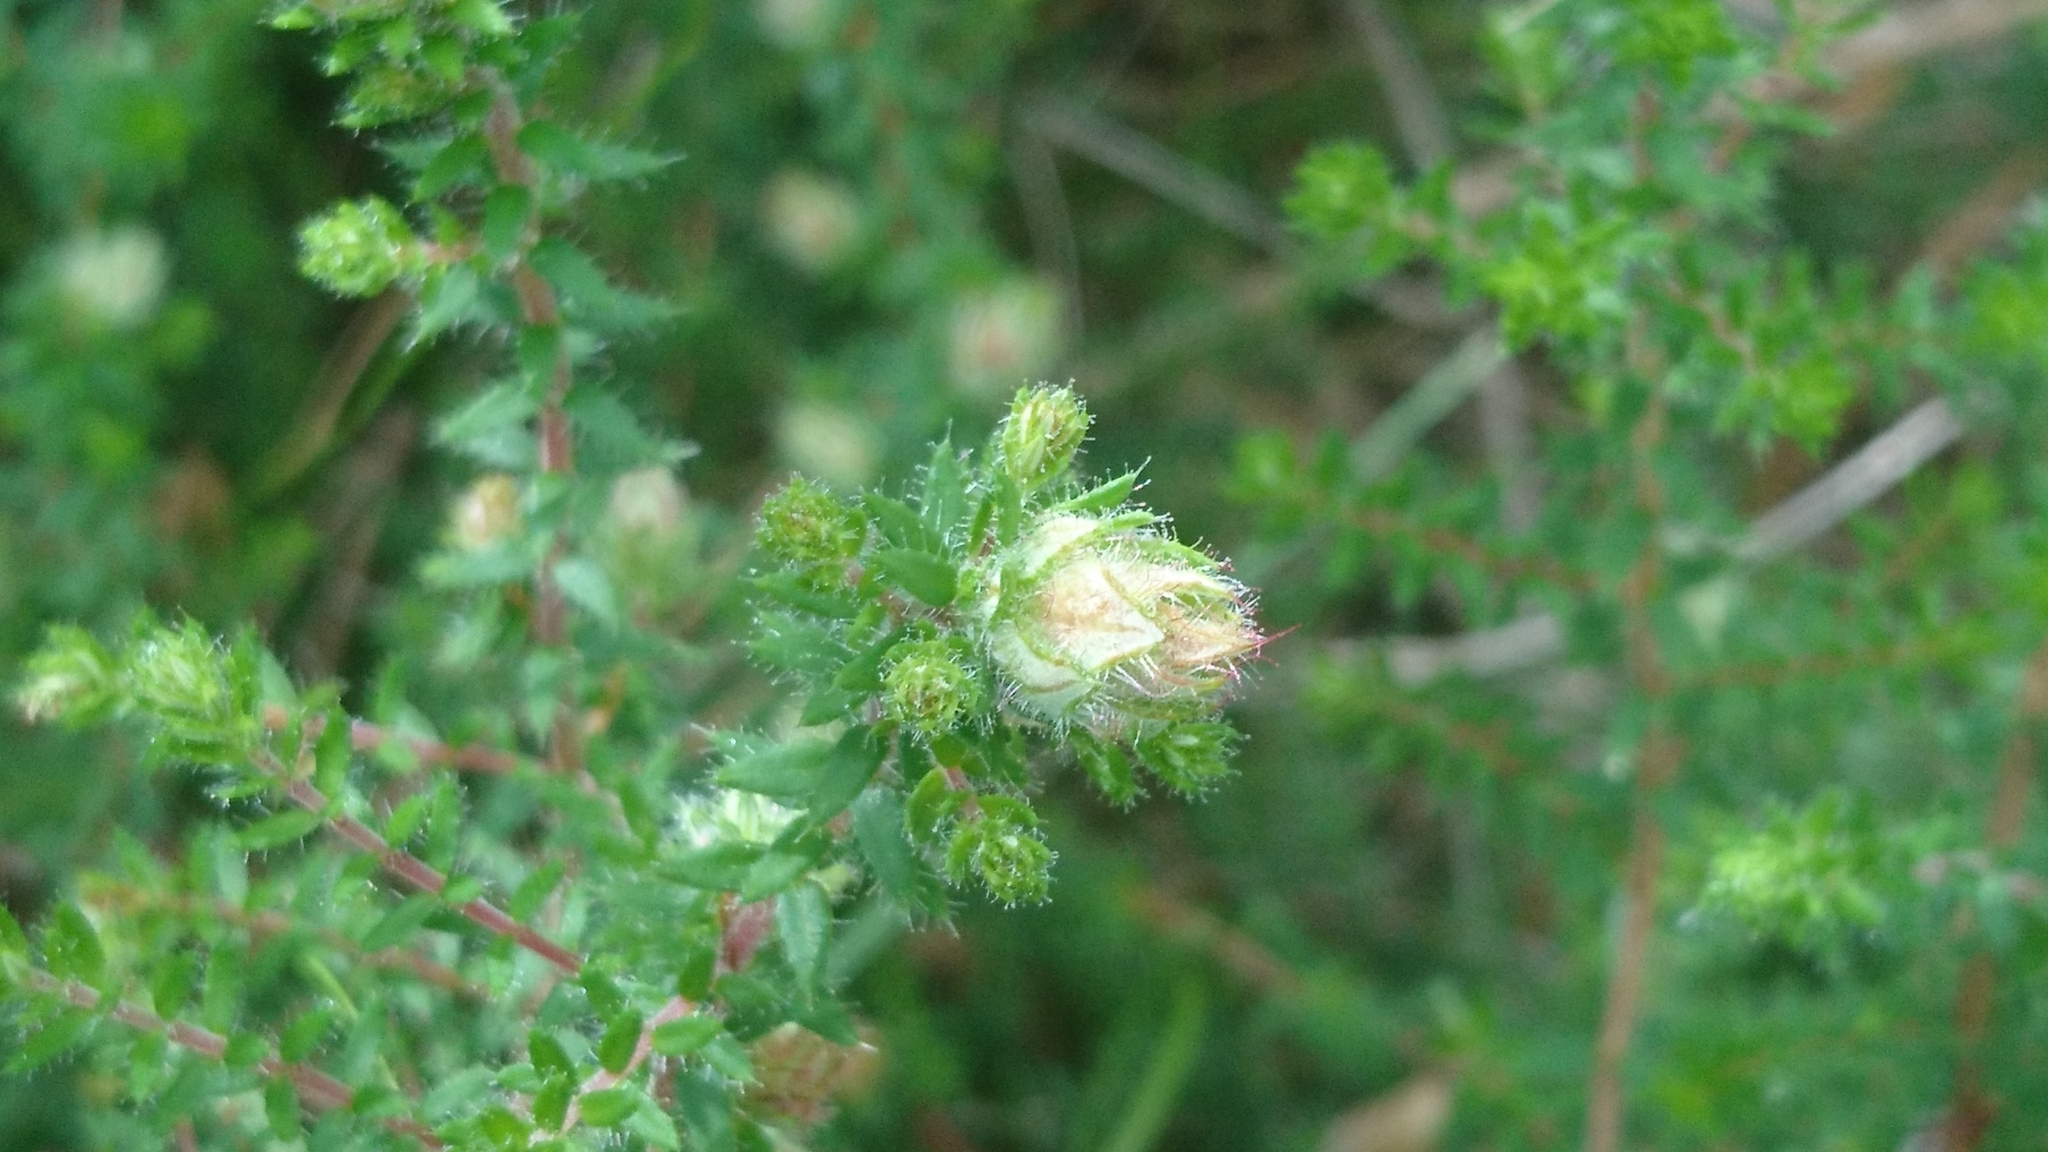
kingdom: Plantae
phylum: Tracheophyta
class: Magnoliopsida
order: Ericales
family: Ericaceae
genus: Erica
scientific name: Erica ciliaris
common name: Dorset heath
